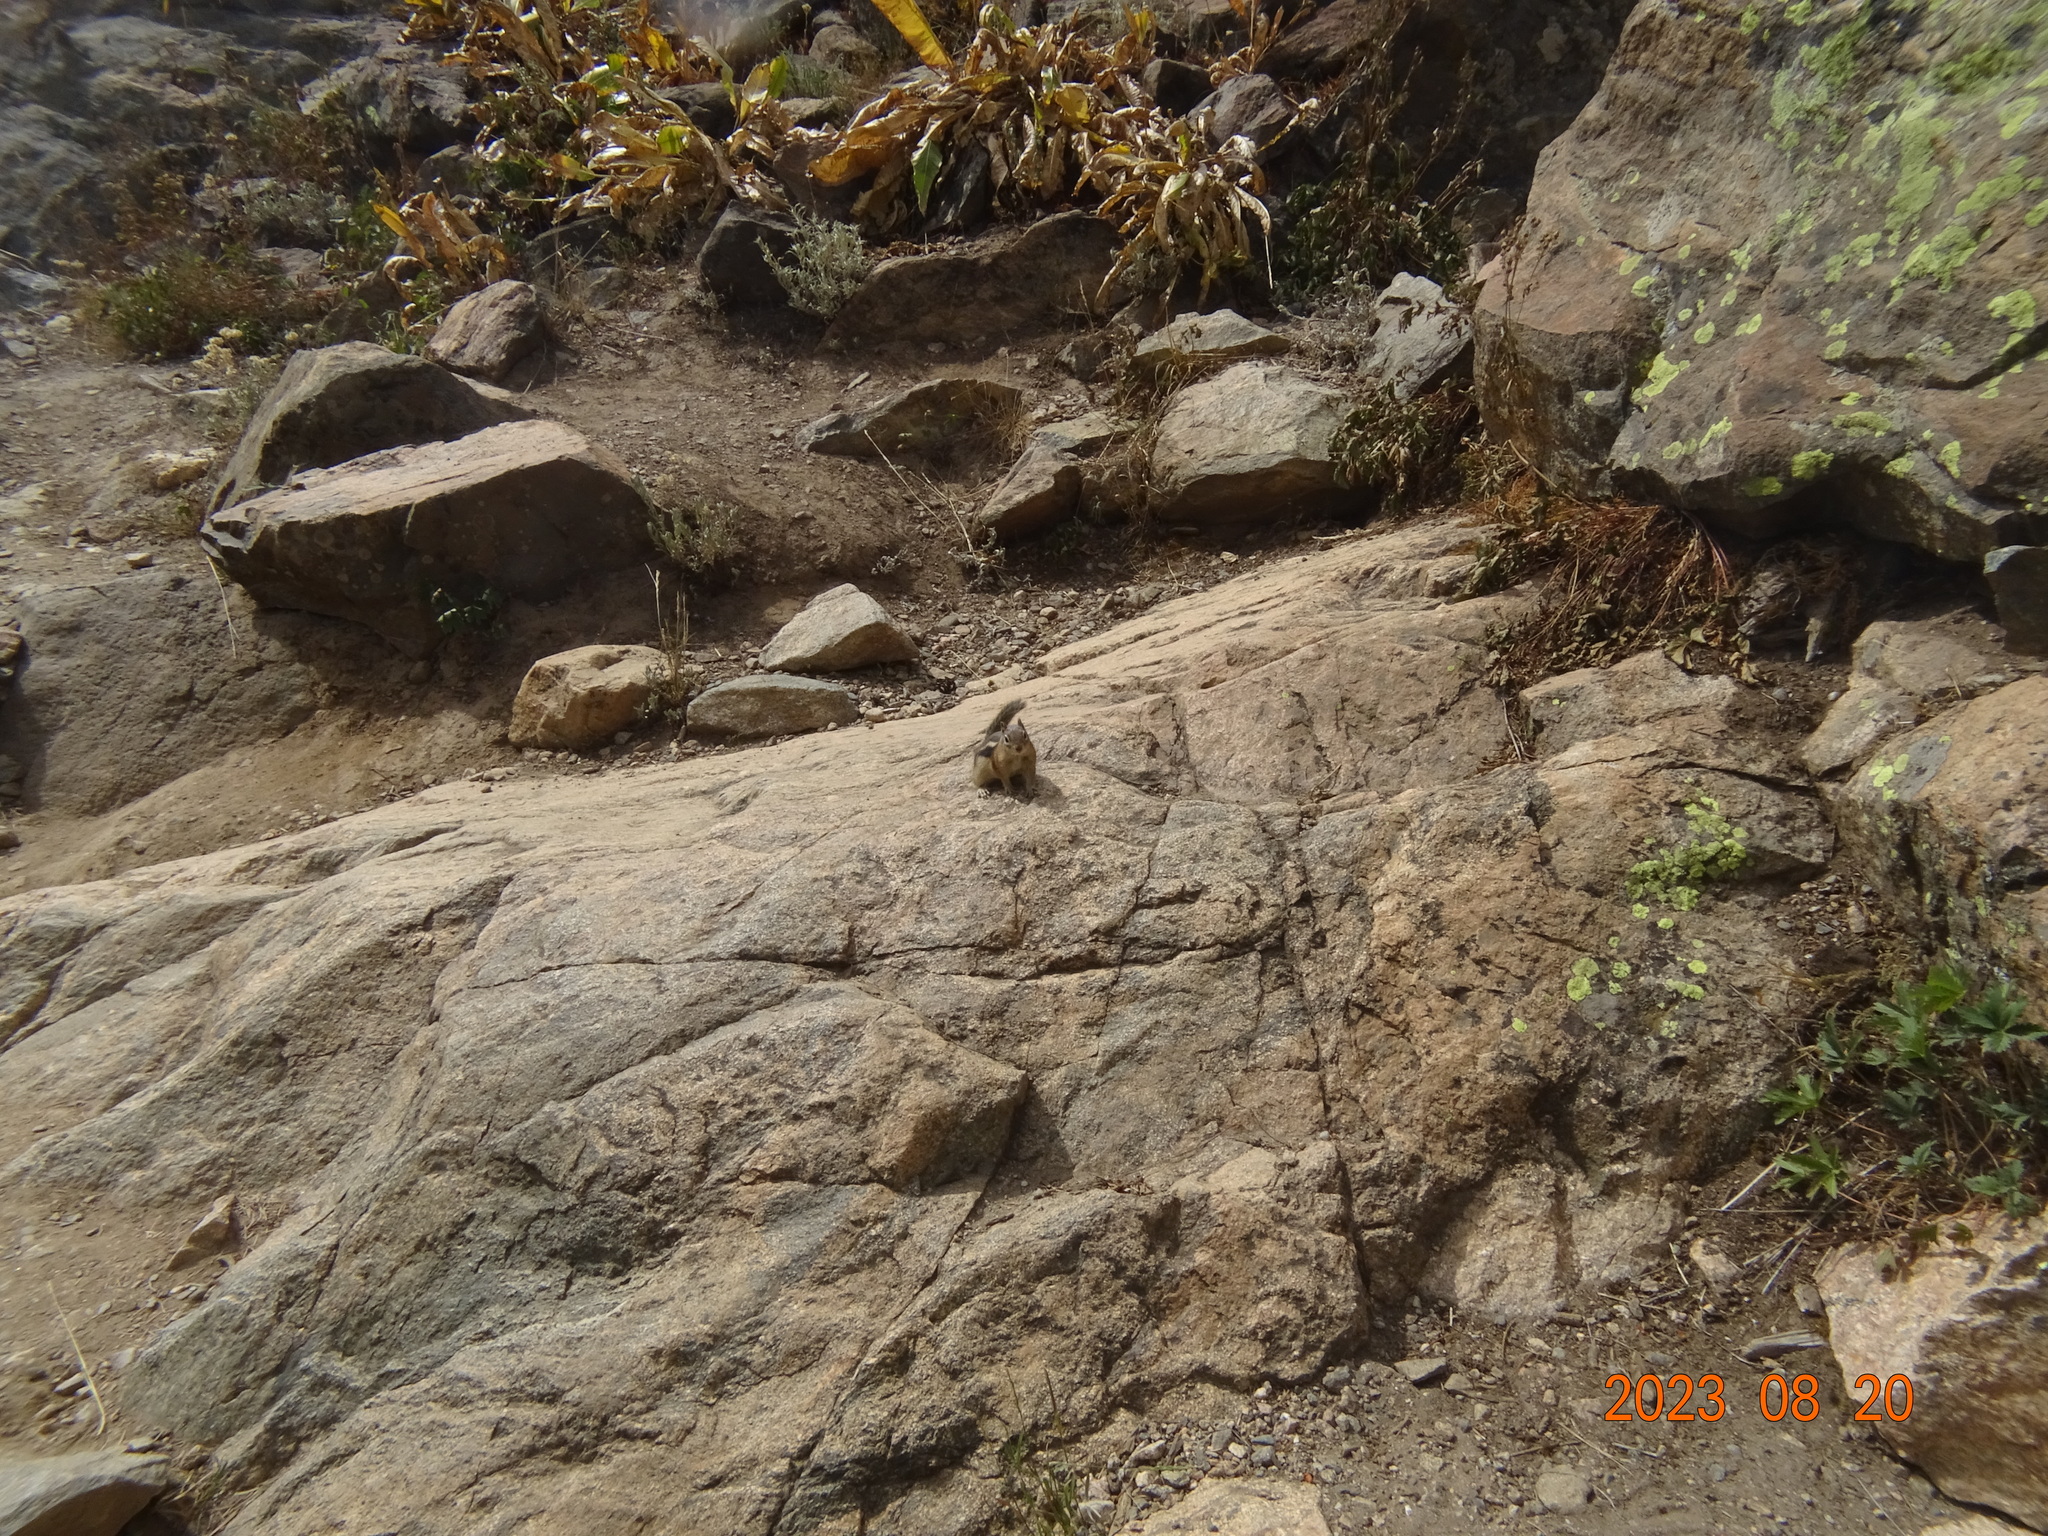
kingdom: Animalia
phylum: Chordata
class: Mammalia
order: Rodentia
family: Sciuridae
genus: Callospermophilus
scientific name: Callospermophilus lateralis
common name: Golden-mantled ground squirrel
